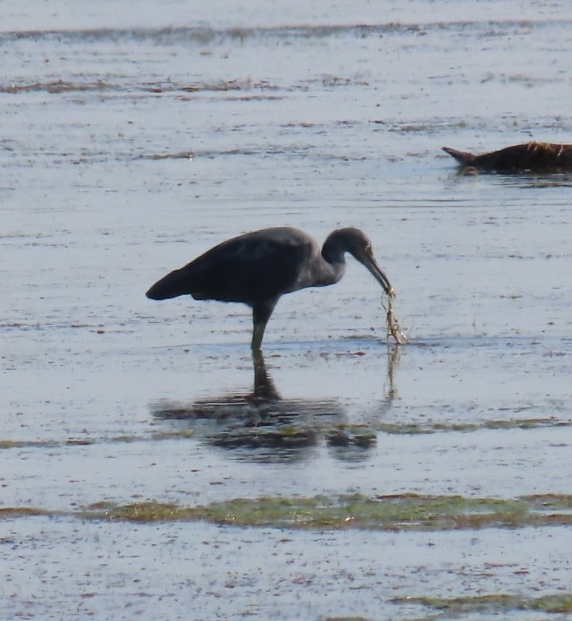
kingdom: Animalia
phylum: Chordata
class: Aves
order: Pelecaniformes
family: Ardeidae
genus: Egretta
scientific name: Egretta caerulea
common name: Little blue heron
